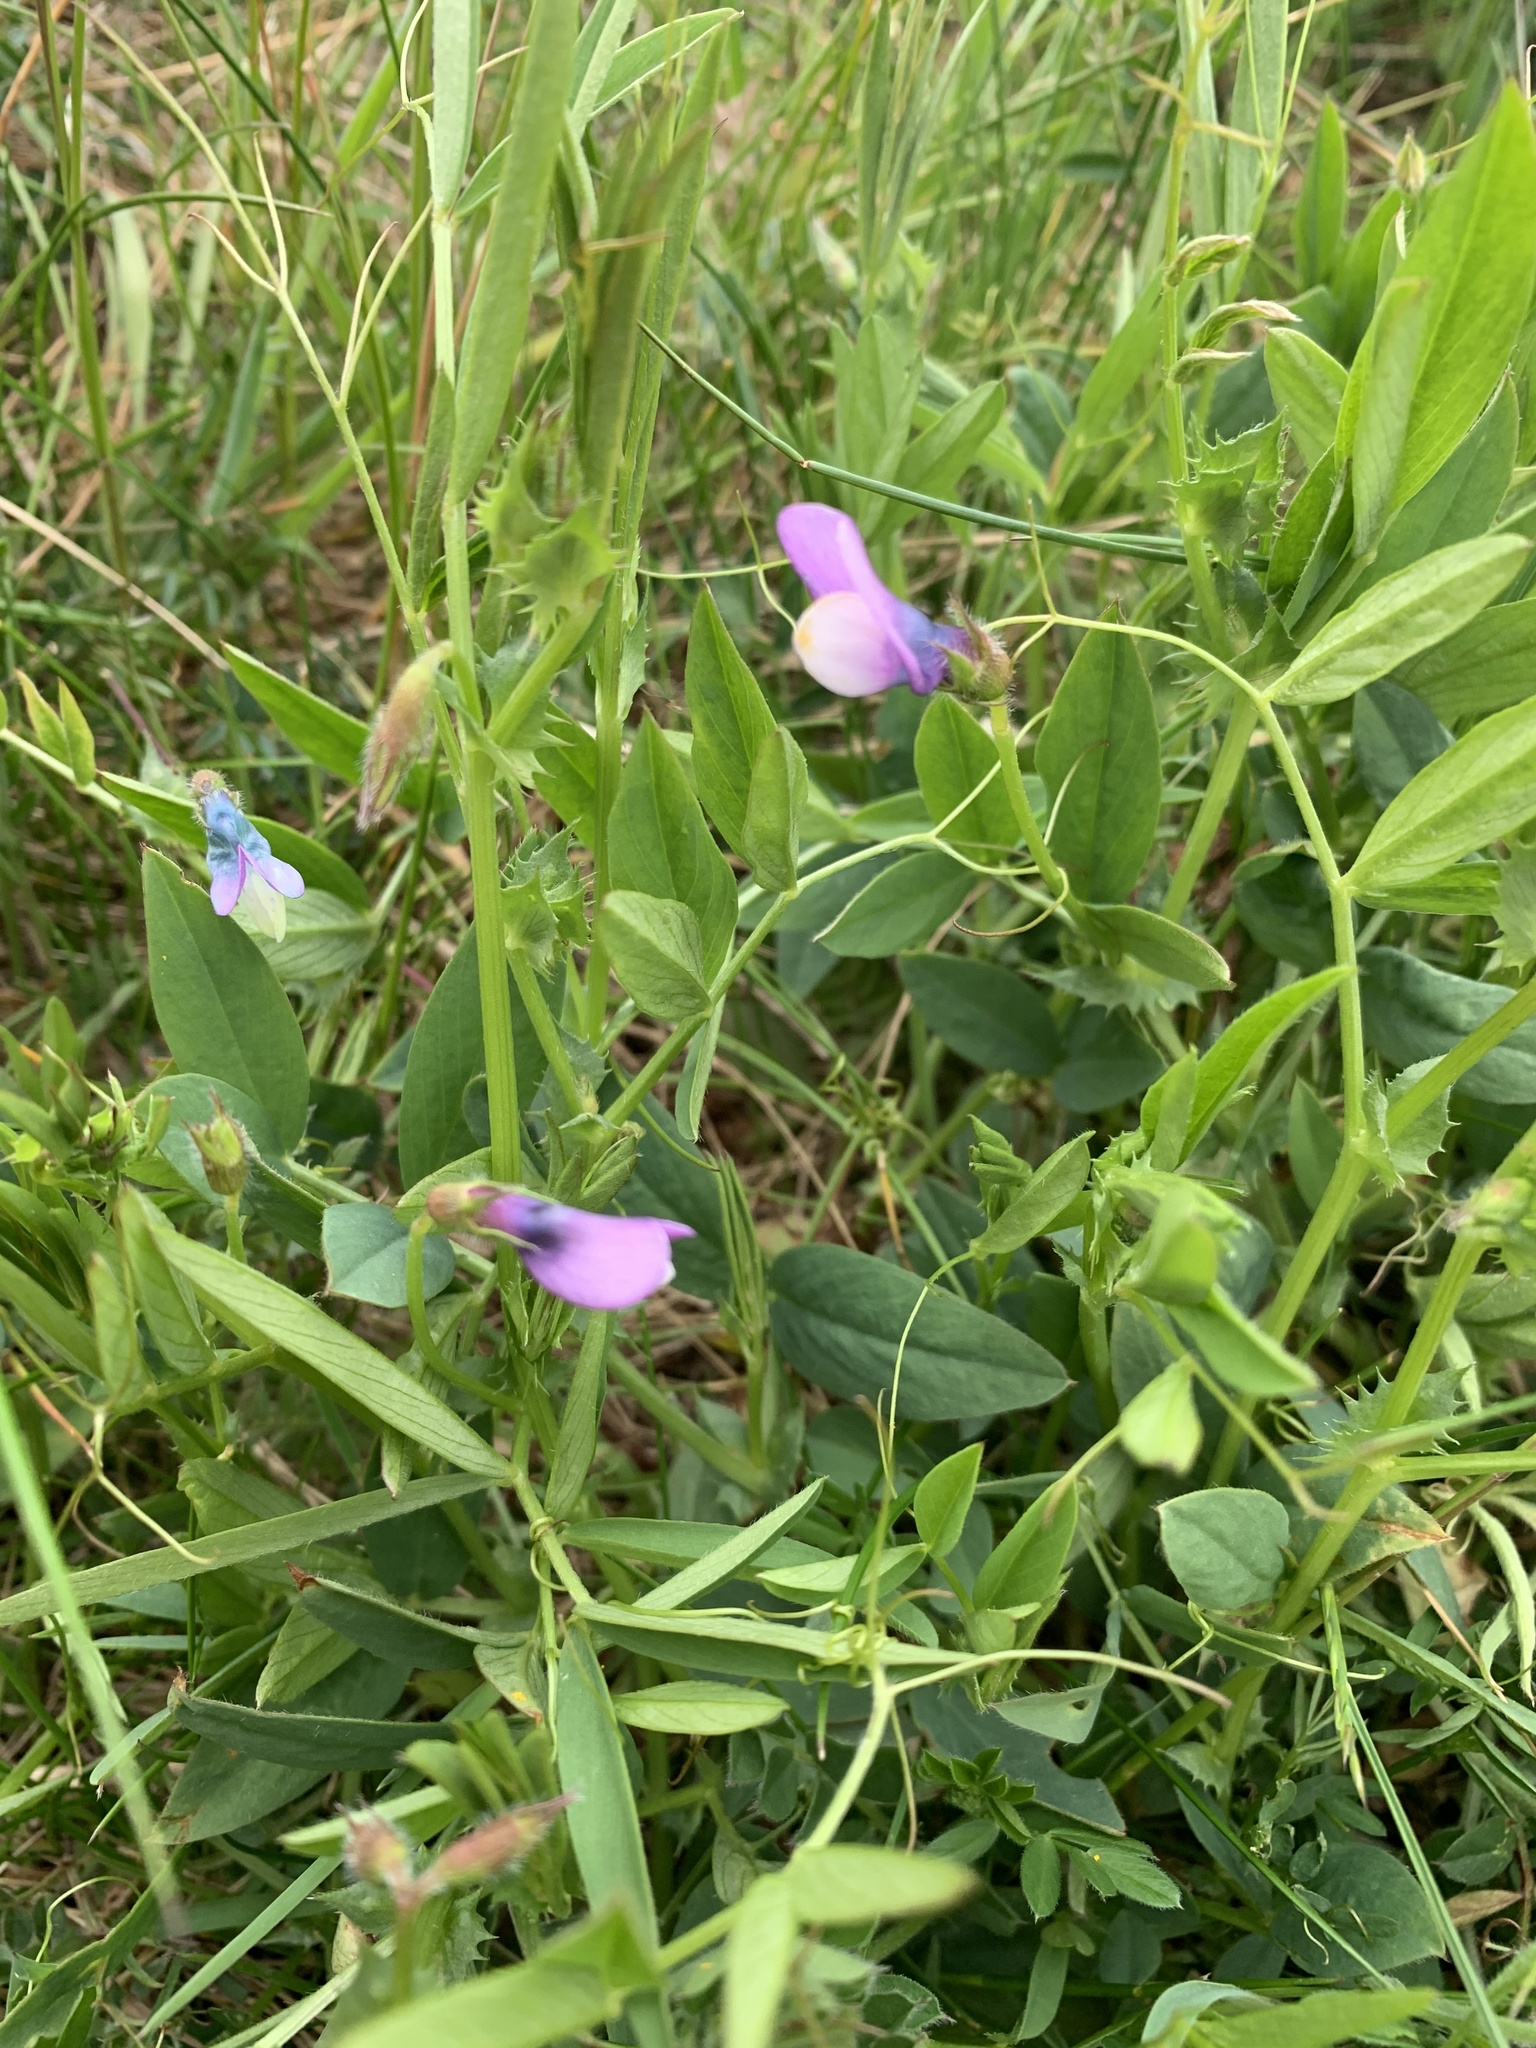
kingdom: Plantae
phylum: Tracheophyta
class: Magnoliopsida
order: Fabales
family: Fabaceae
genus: Vicia
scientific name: Vicia bithynica
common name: Bithynian vetch
